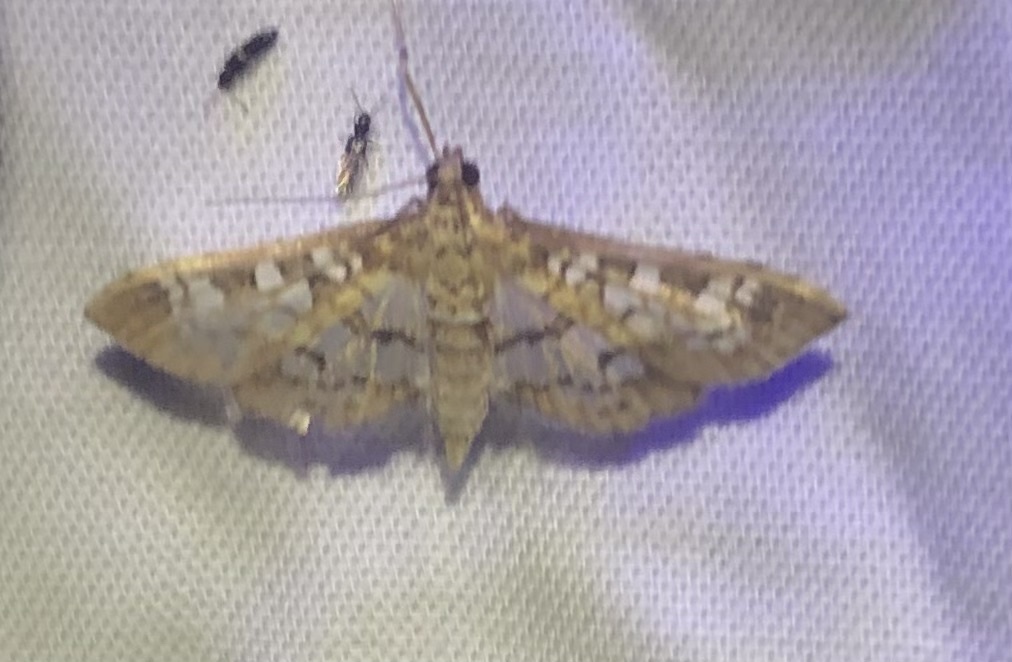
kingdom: Animalia
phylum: Arthropoda
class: Insecta
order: Lepidoptera
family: Crambidae
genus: Samea
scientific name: Samea multiplicalis
